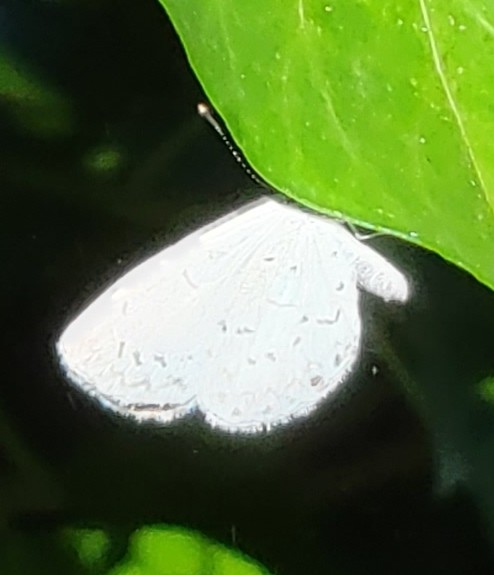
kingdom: Animalia
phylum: Arthropoda
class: Insecta
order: Lepidoptera
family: Lycaenidae
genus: Cyaniris
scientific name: Cyaniris neglecta
